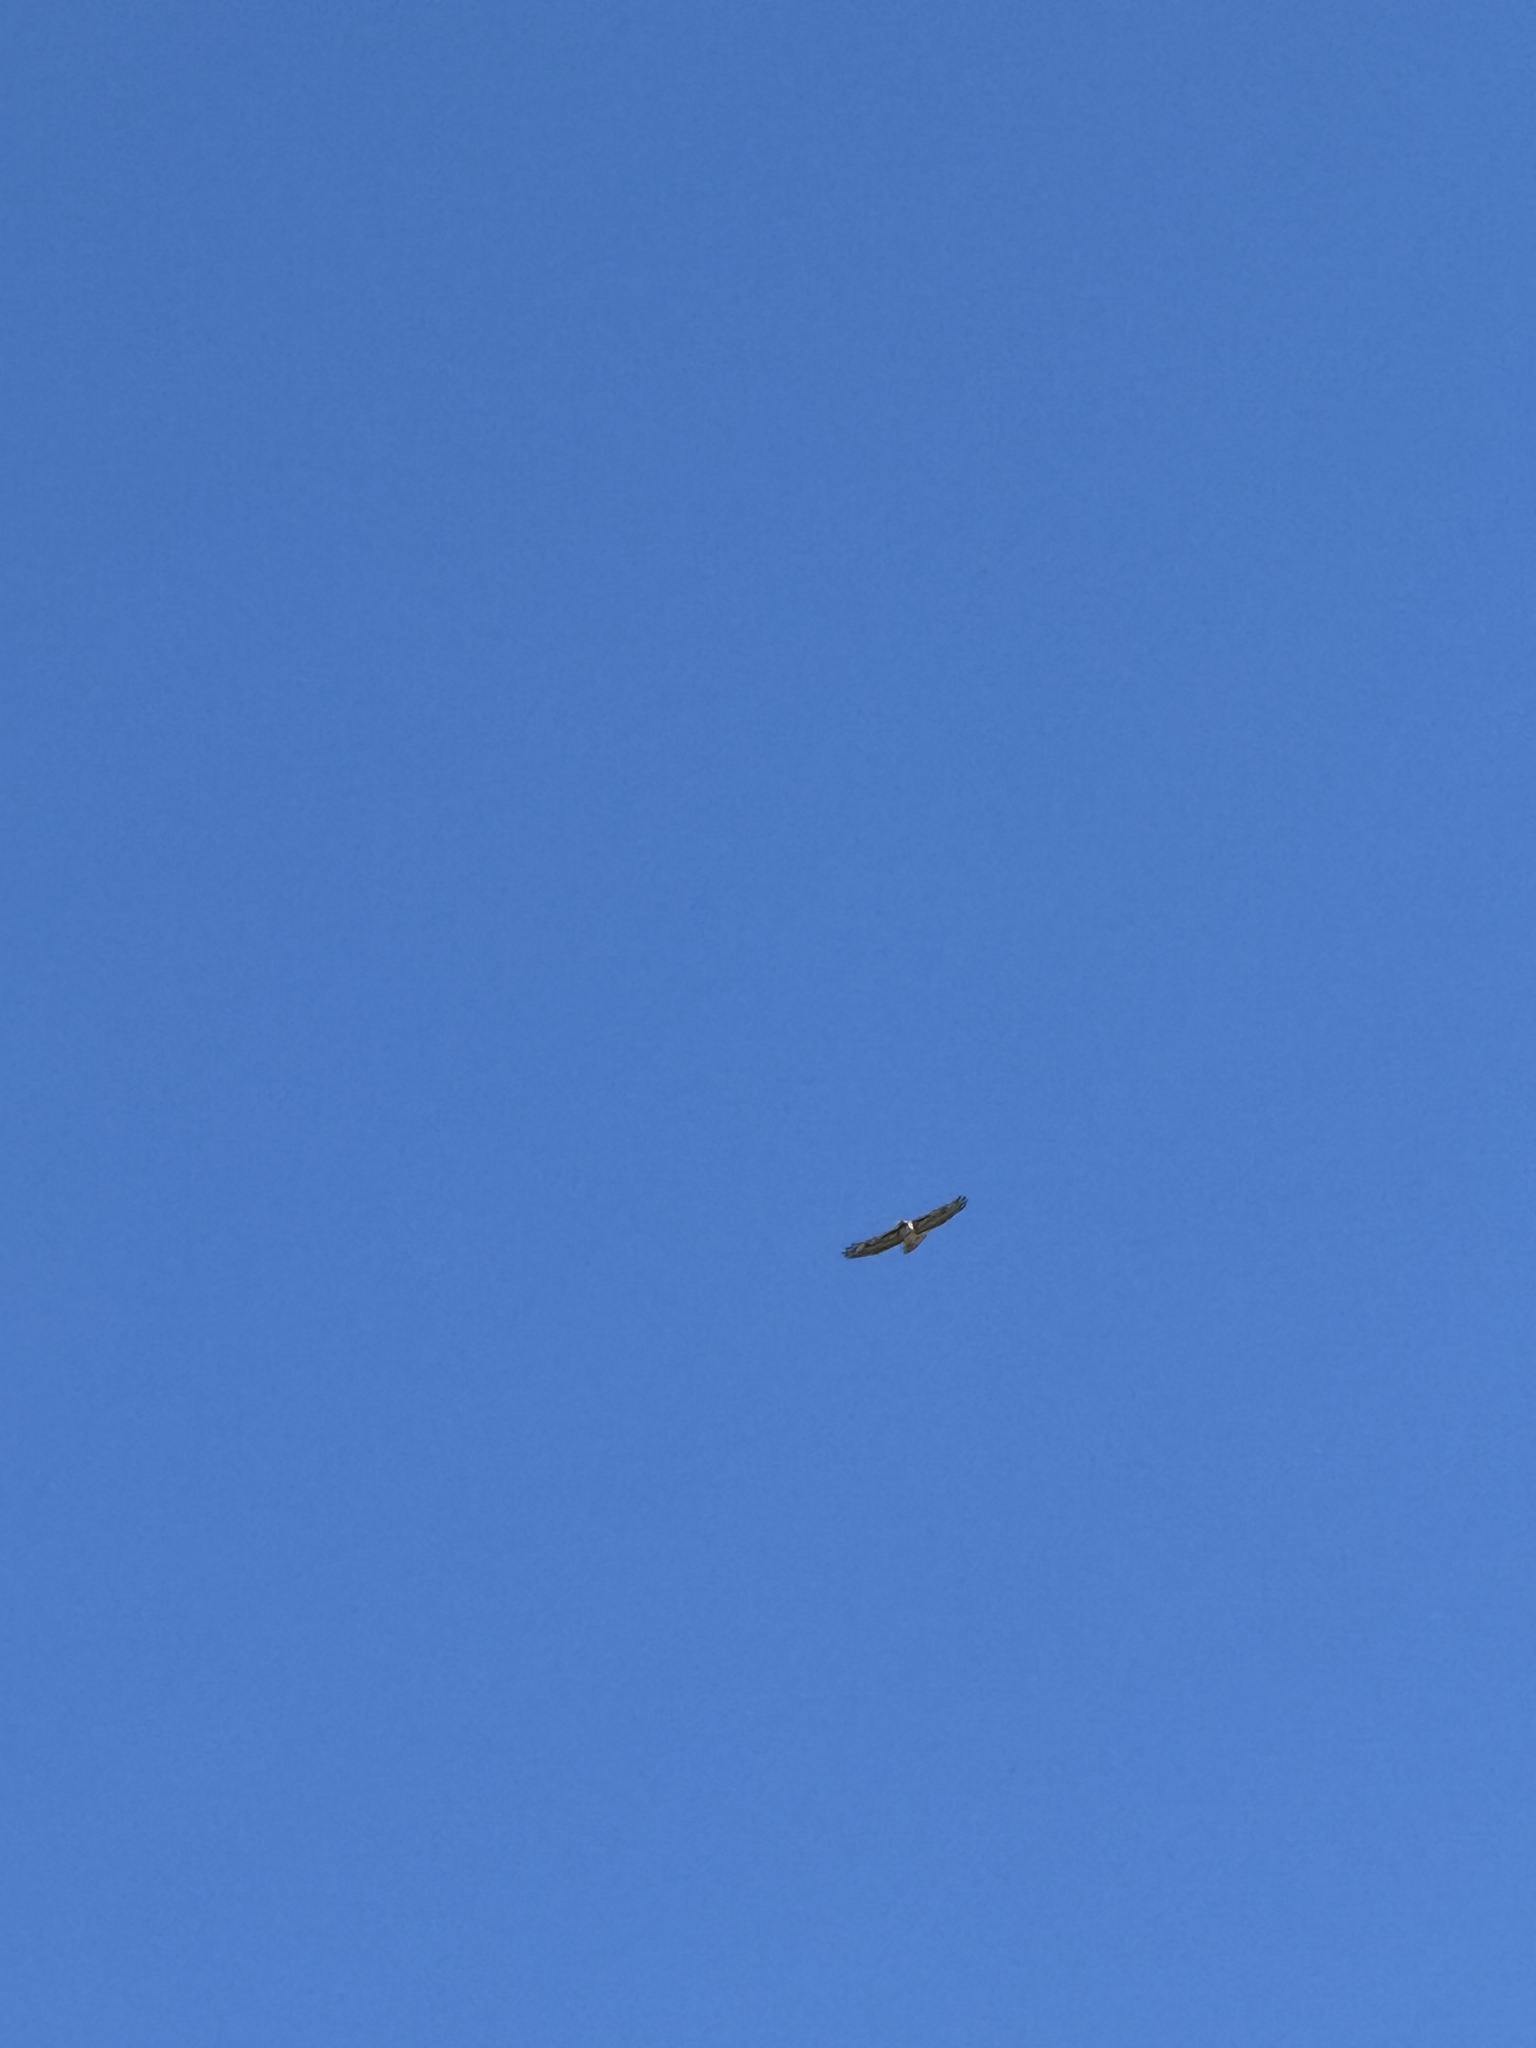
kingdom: Animalia
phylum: Chordata
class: Aves
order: Accipitriformes
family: Accipitridae
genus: Buteo
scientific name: Buteo jamaicensis
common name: Red-tailed hawk
